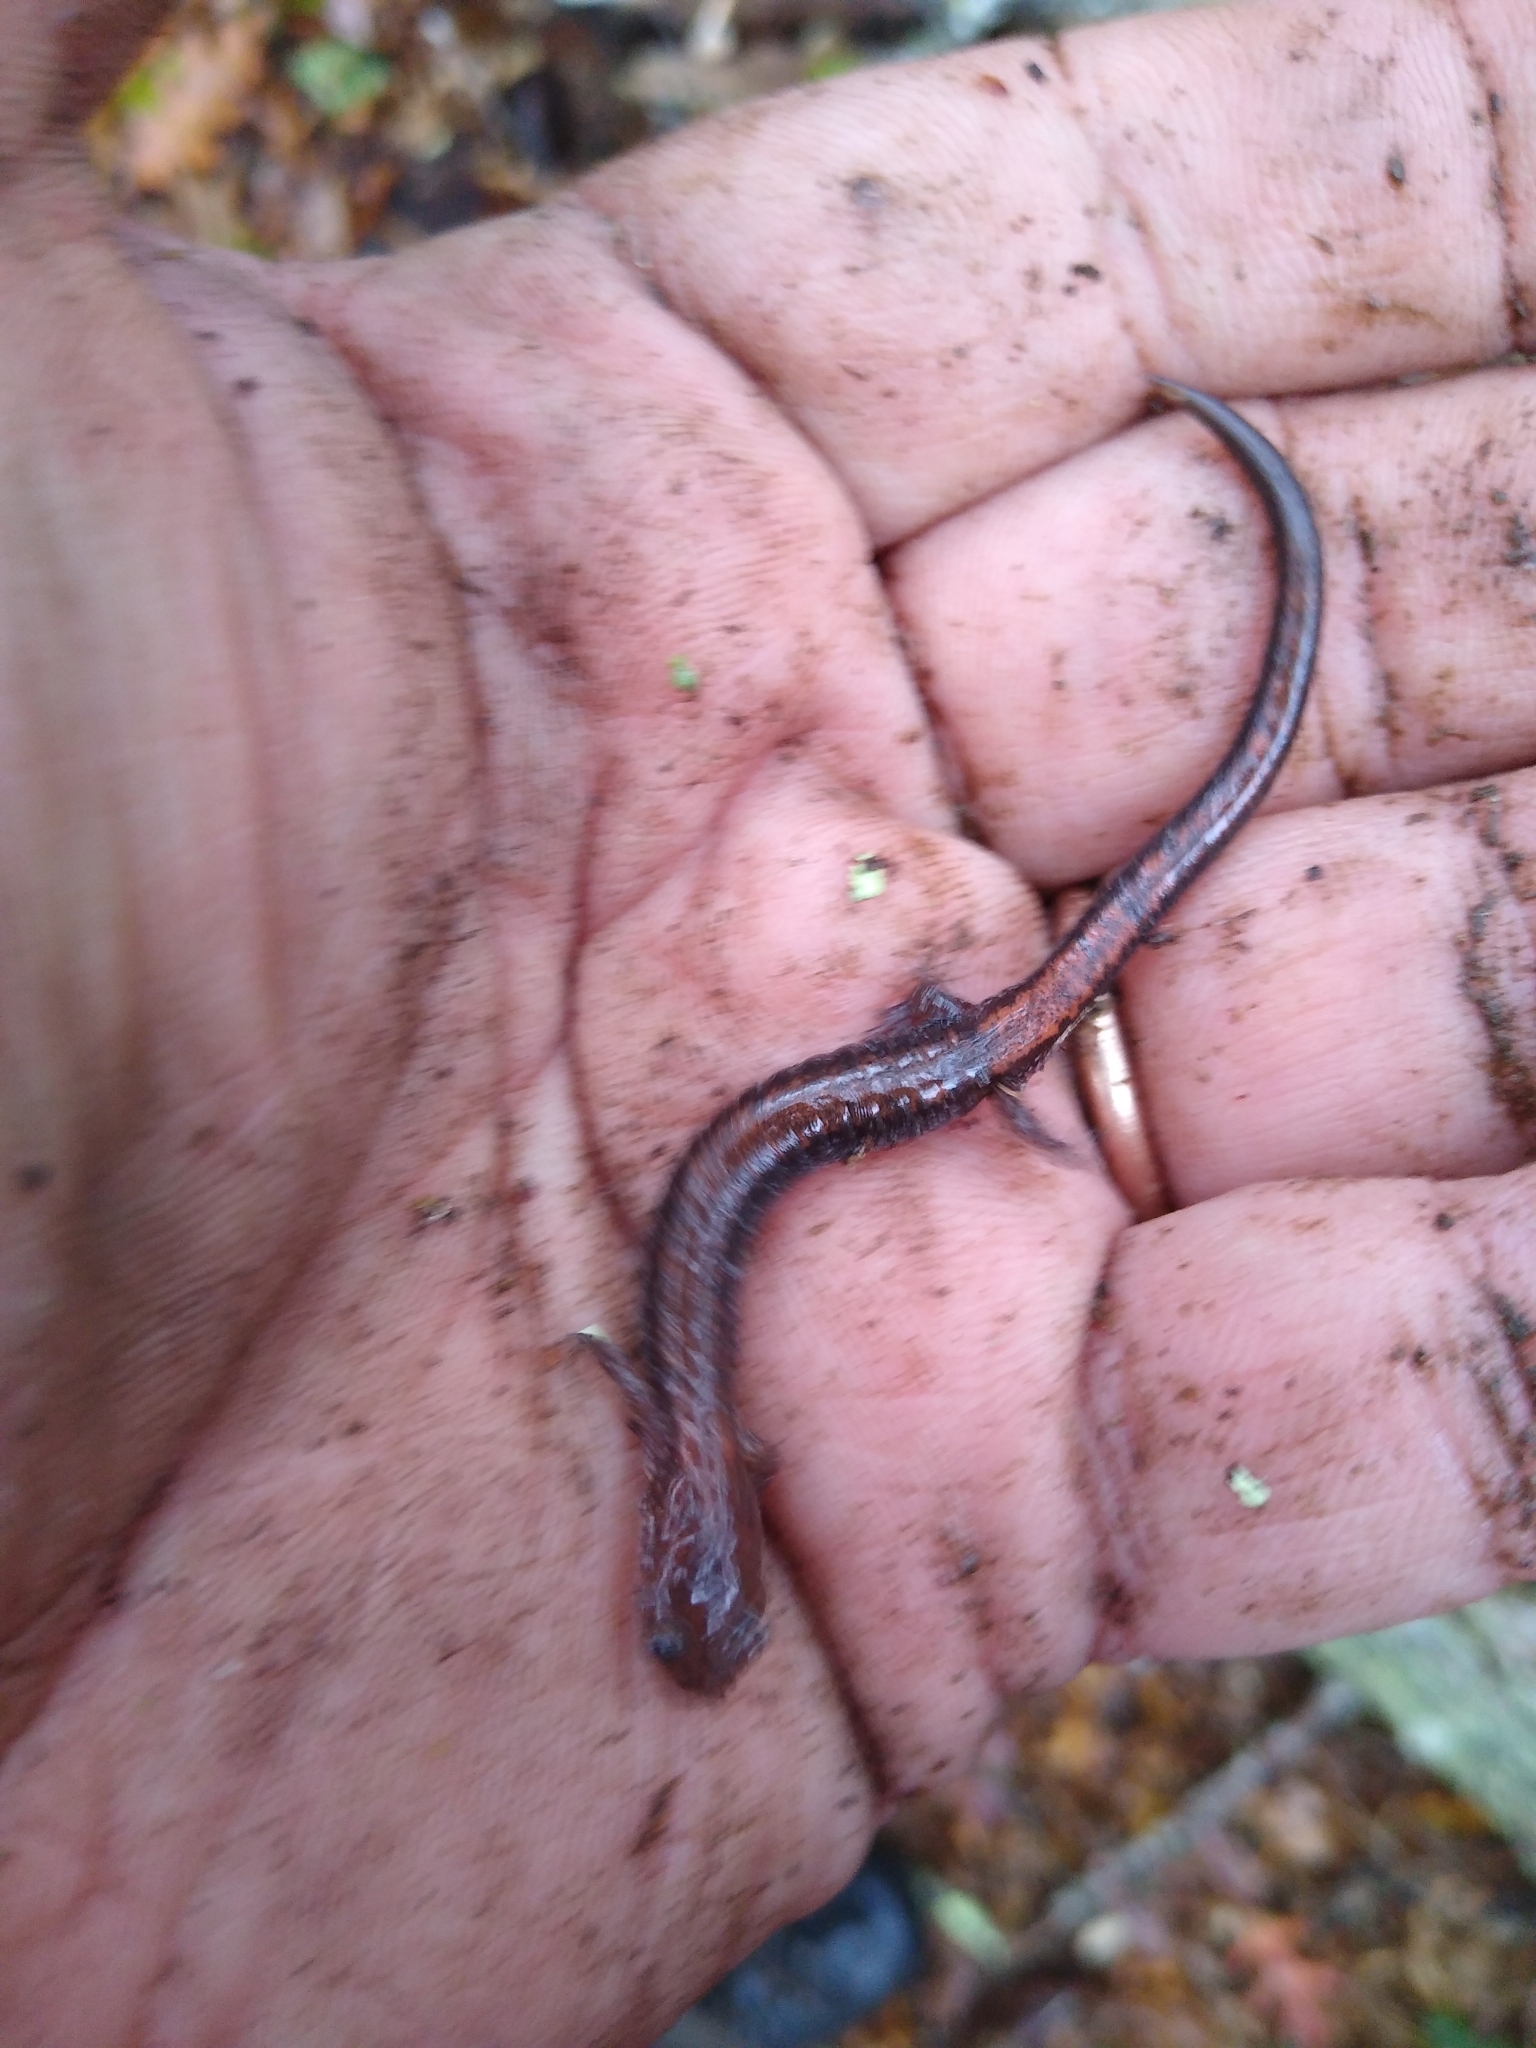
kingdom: Animalia
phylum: Chordata
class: Amphibia
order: Caudata
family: Plethodontidae
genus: Plethodon
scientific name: Plethodon cinereus
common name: Redback salamander
